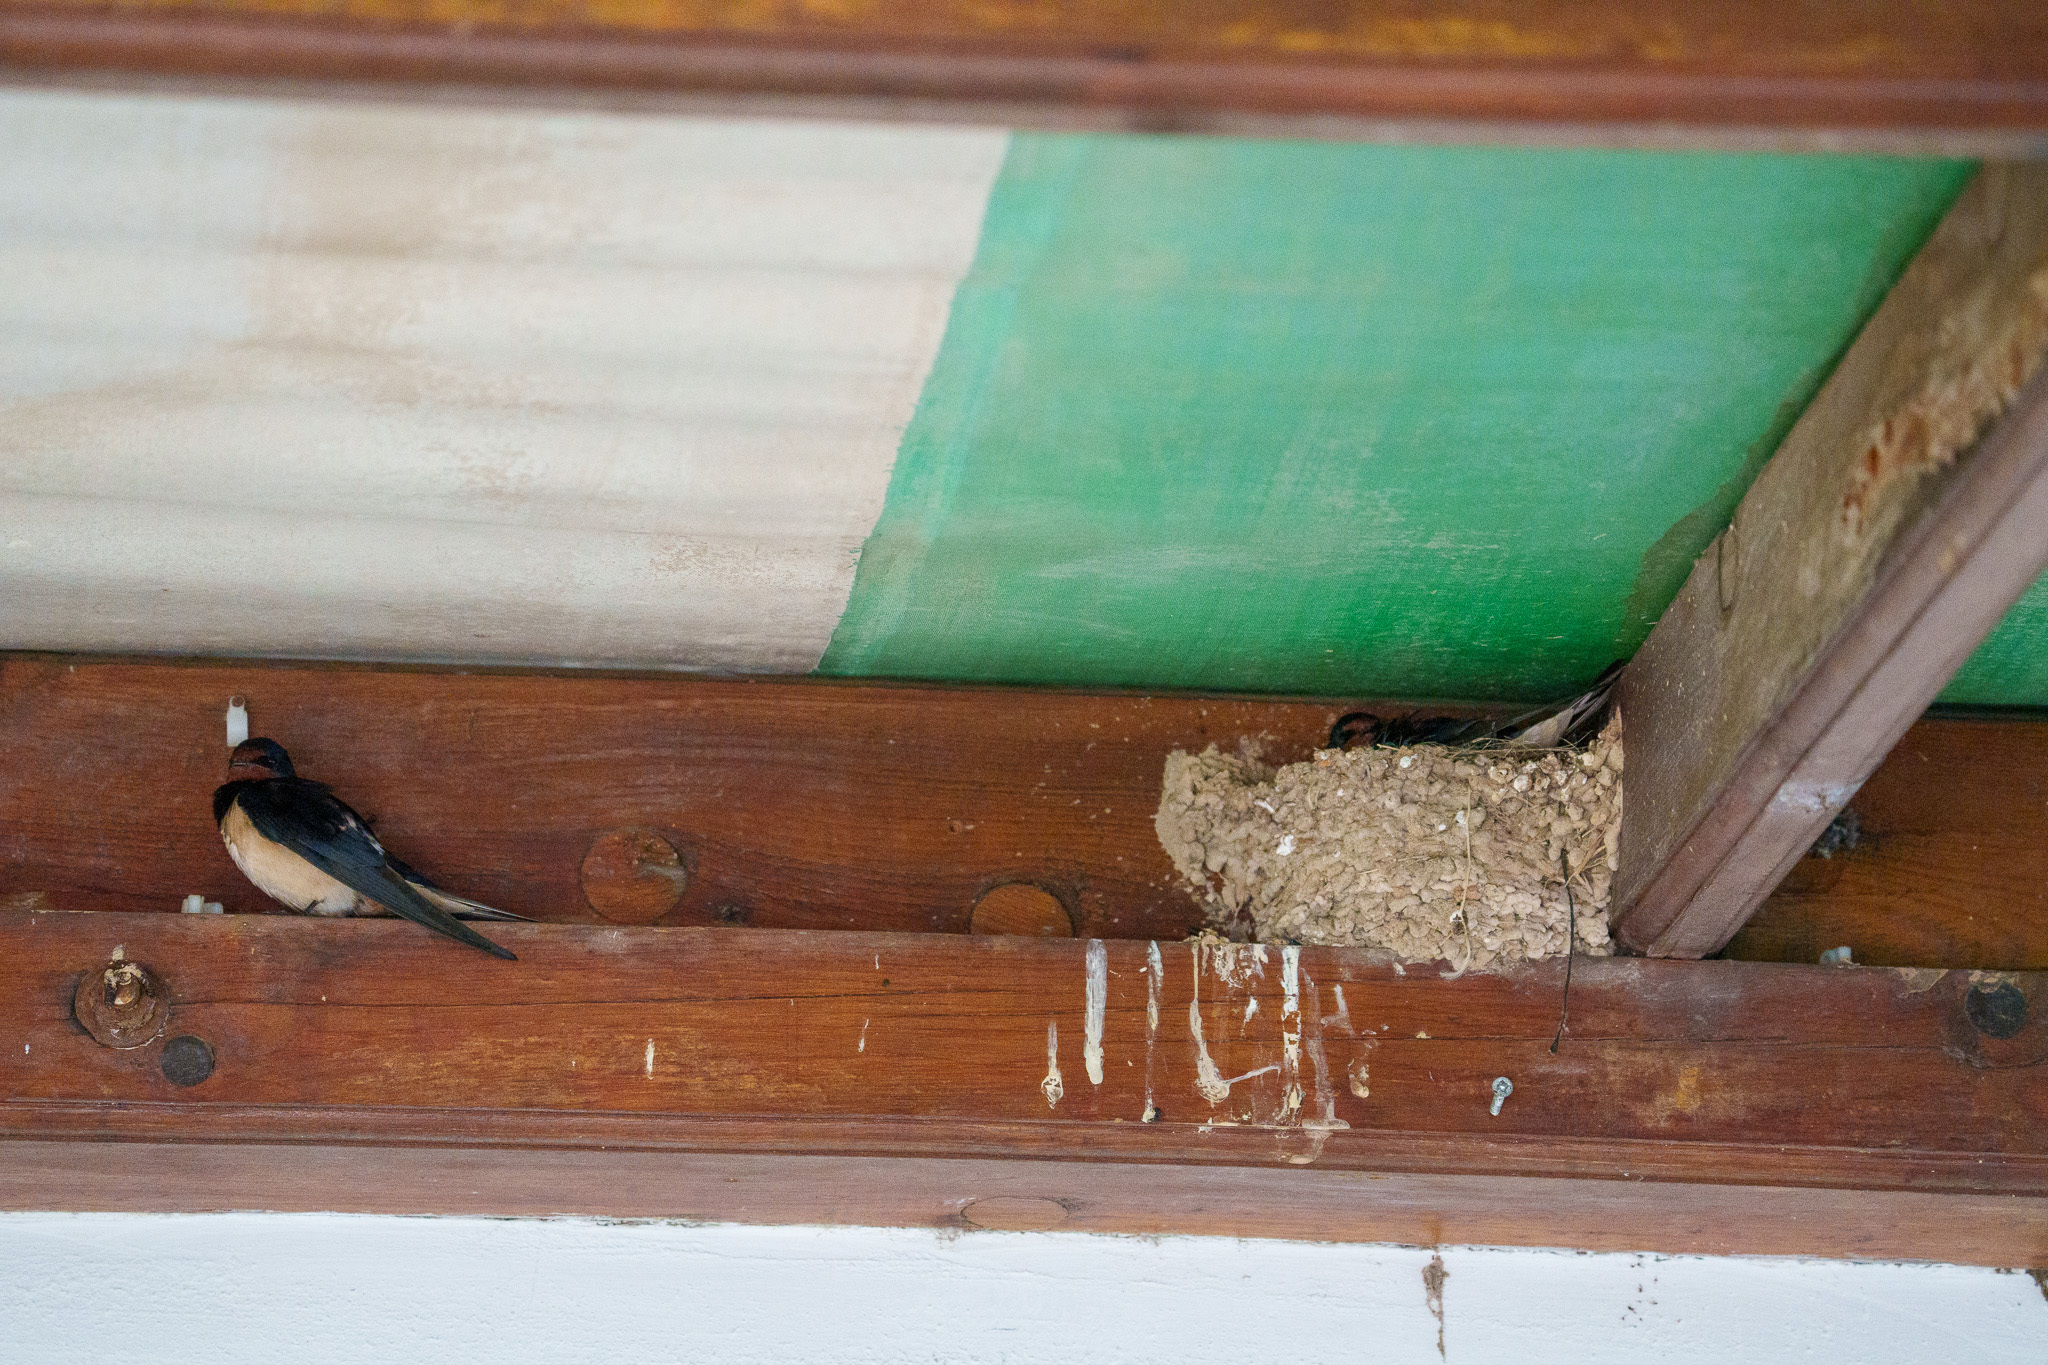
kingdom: Animalia
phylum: Chordata
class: Aves
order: Passeriformes
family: Hirundinidae
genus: Hirundo
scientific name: Hirundo rustica
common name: Barn swallow
